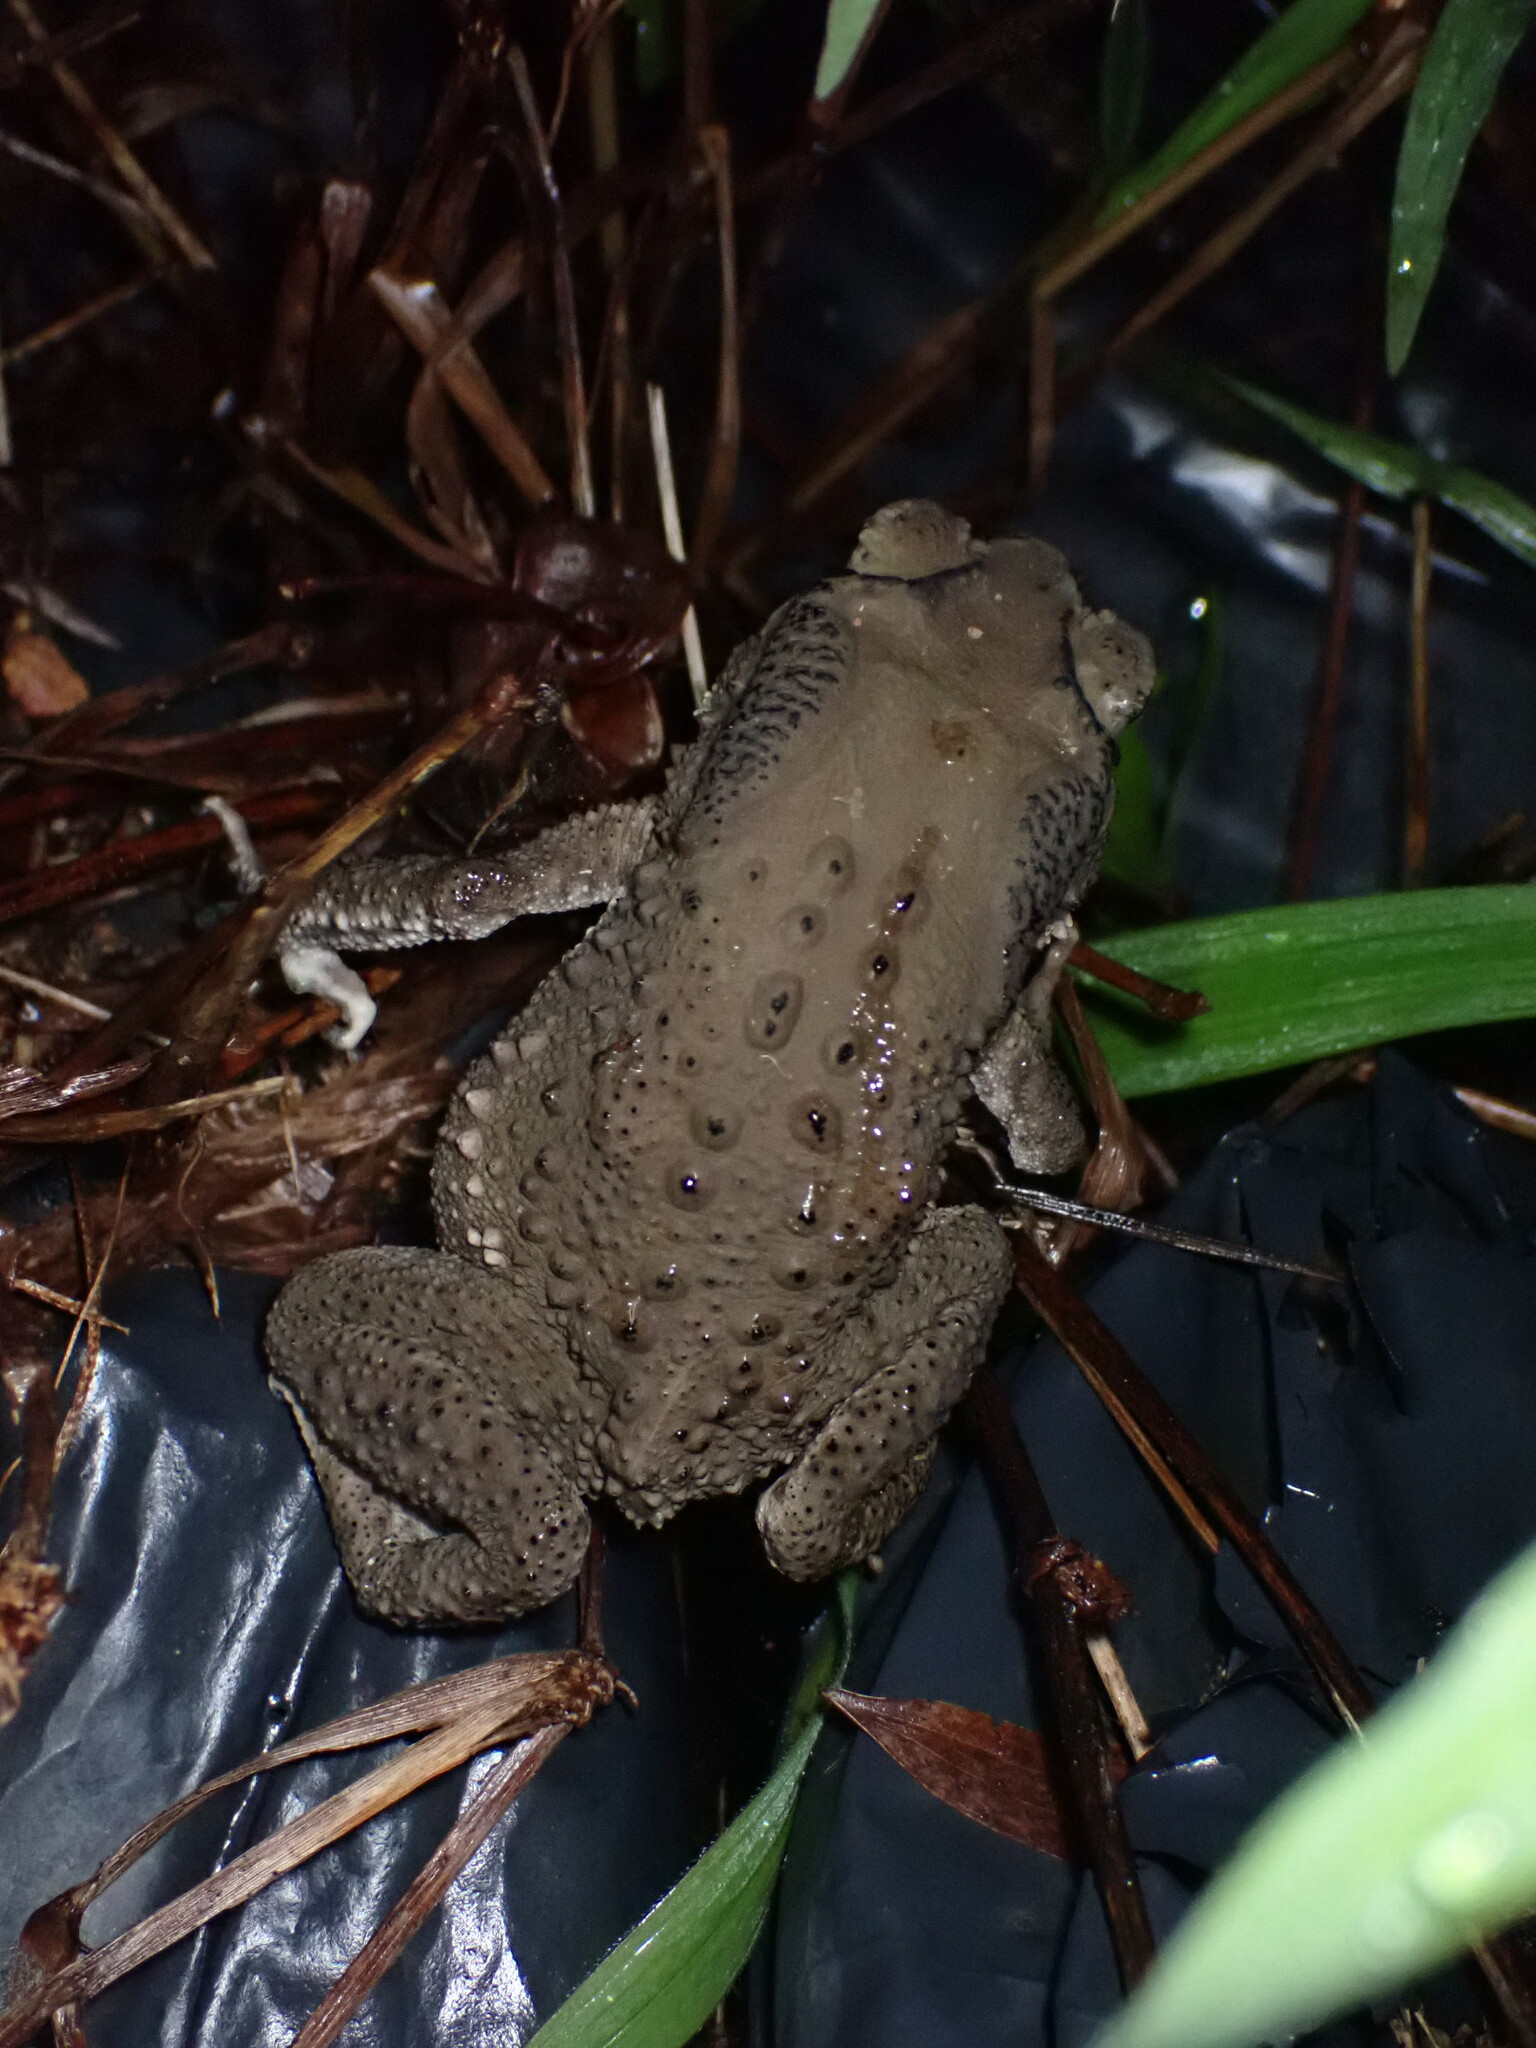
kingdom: Animalia
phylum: Chordata
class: Amphibia
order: Anura
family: Bufonidae
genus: Duttaphrynus
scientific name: Duttaphrynus melanostictus
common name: Common sunda toad
